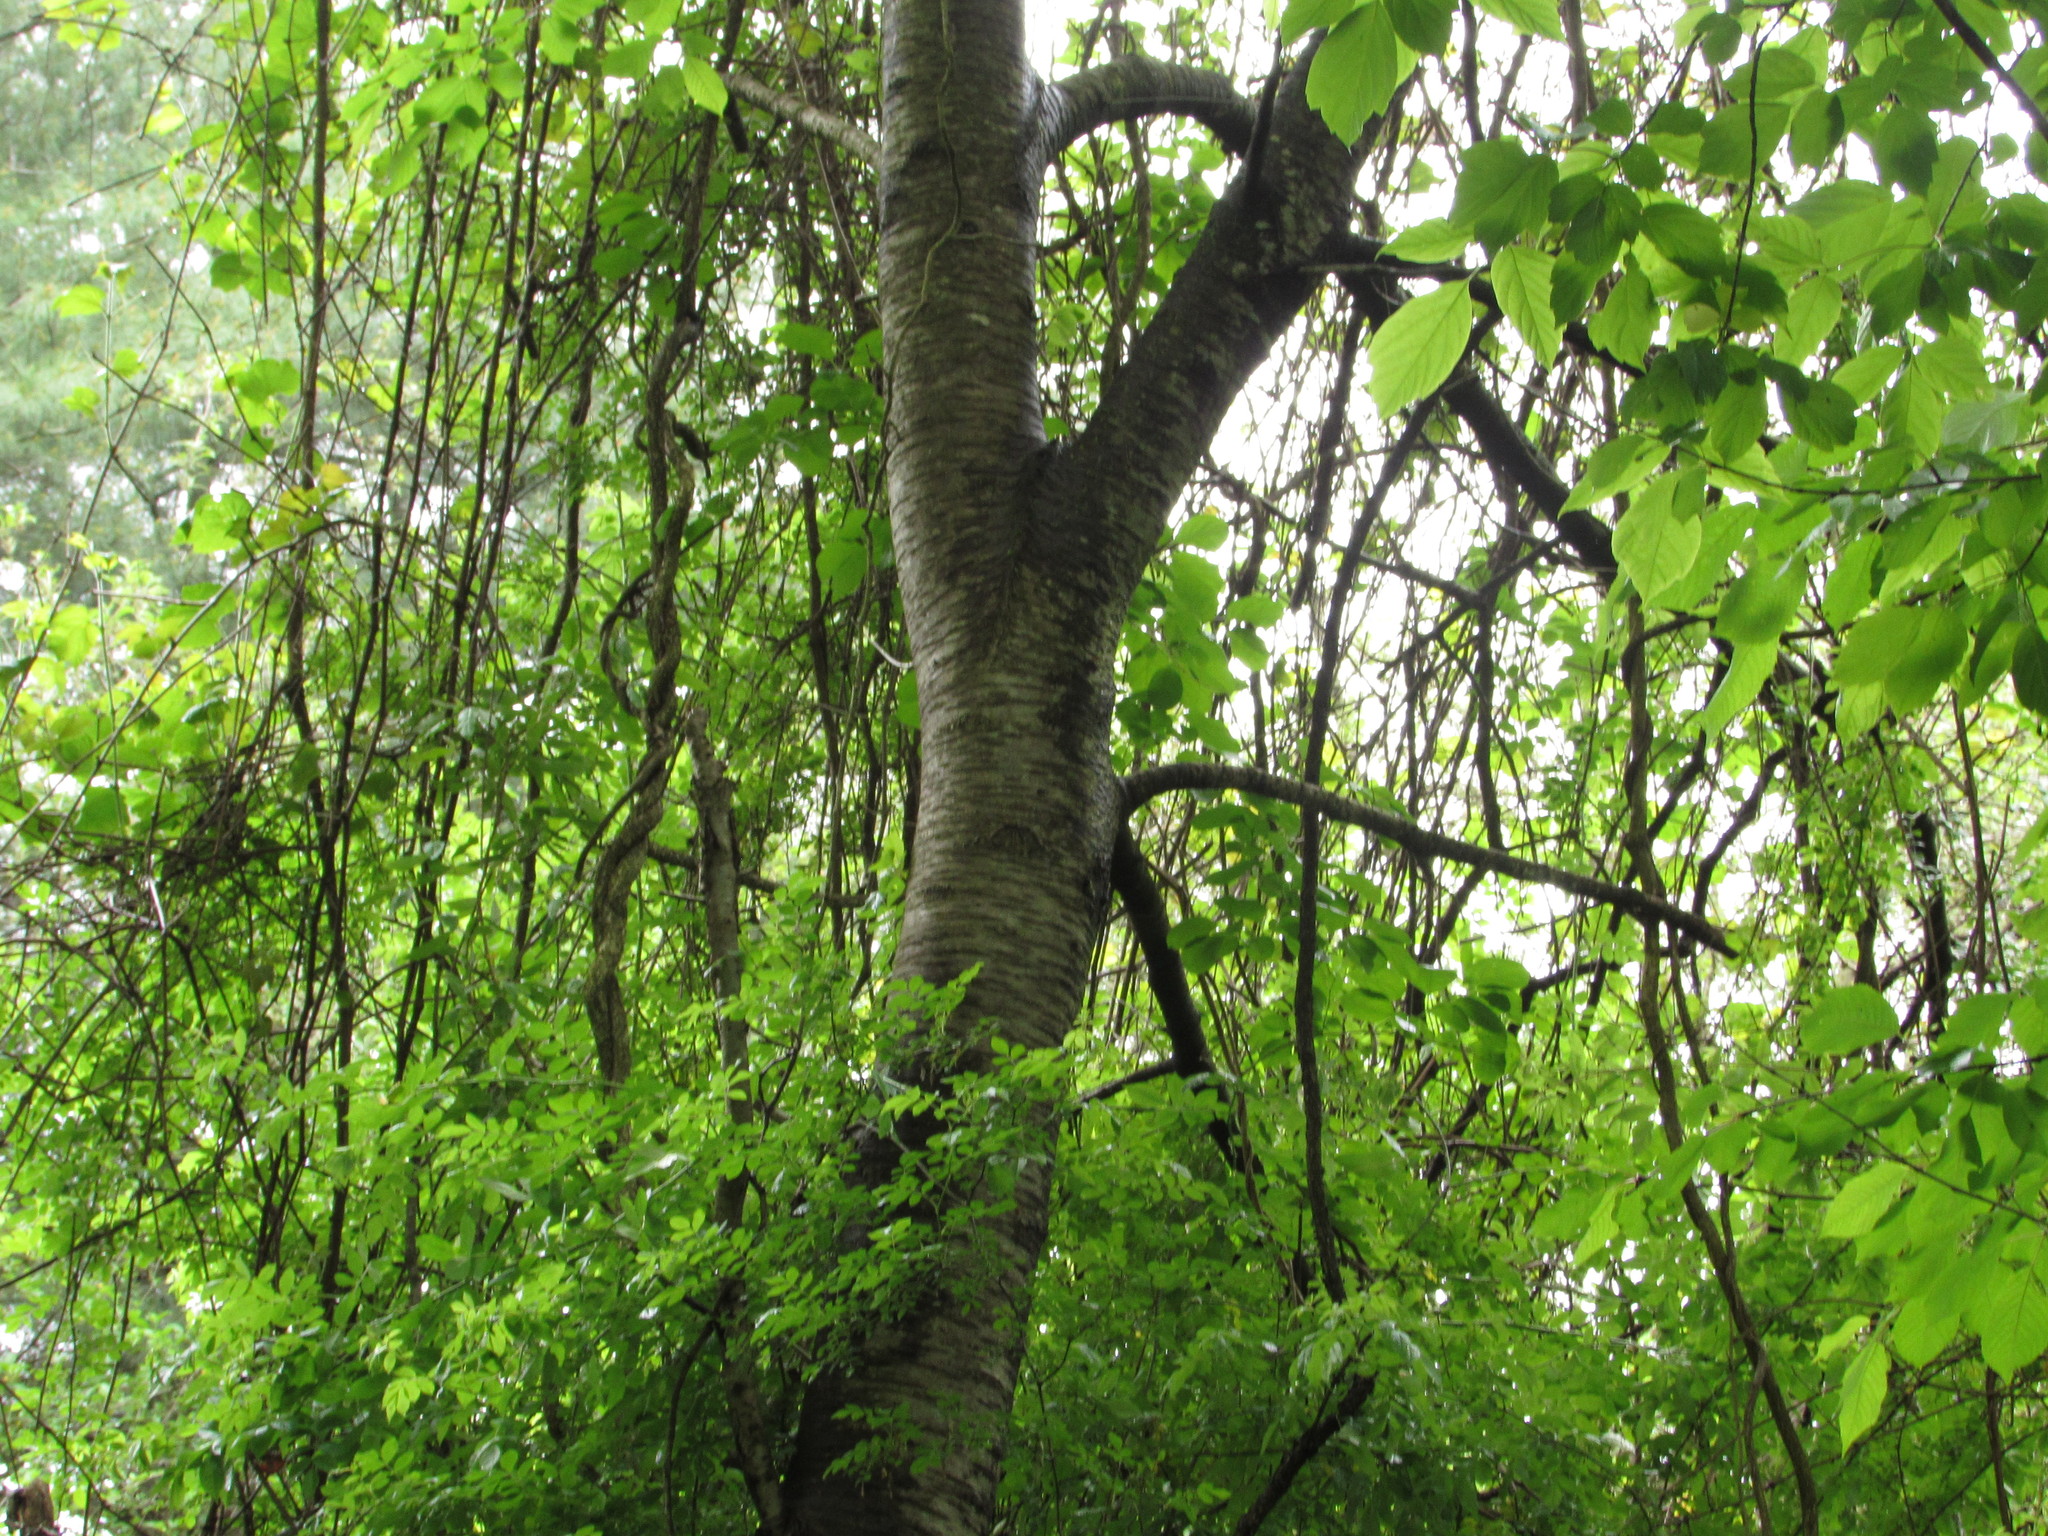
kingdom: Plantae
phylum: Tracheophyta
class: Magnoliopsida
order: Rosales
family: Rosaceae
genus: Prunus
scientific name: Prunus pensylvanica
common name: Pin cherry
